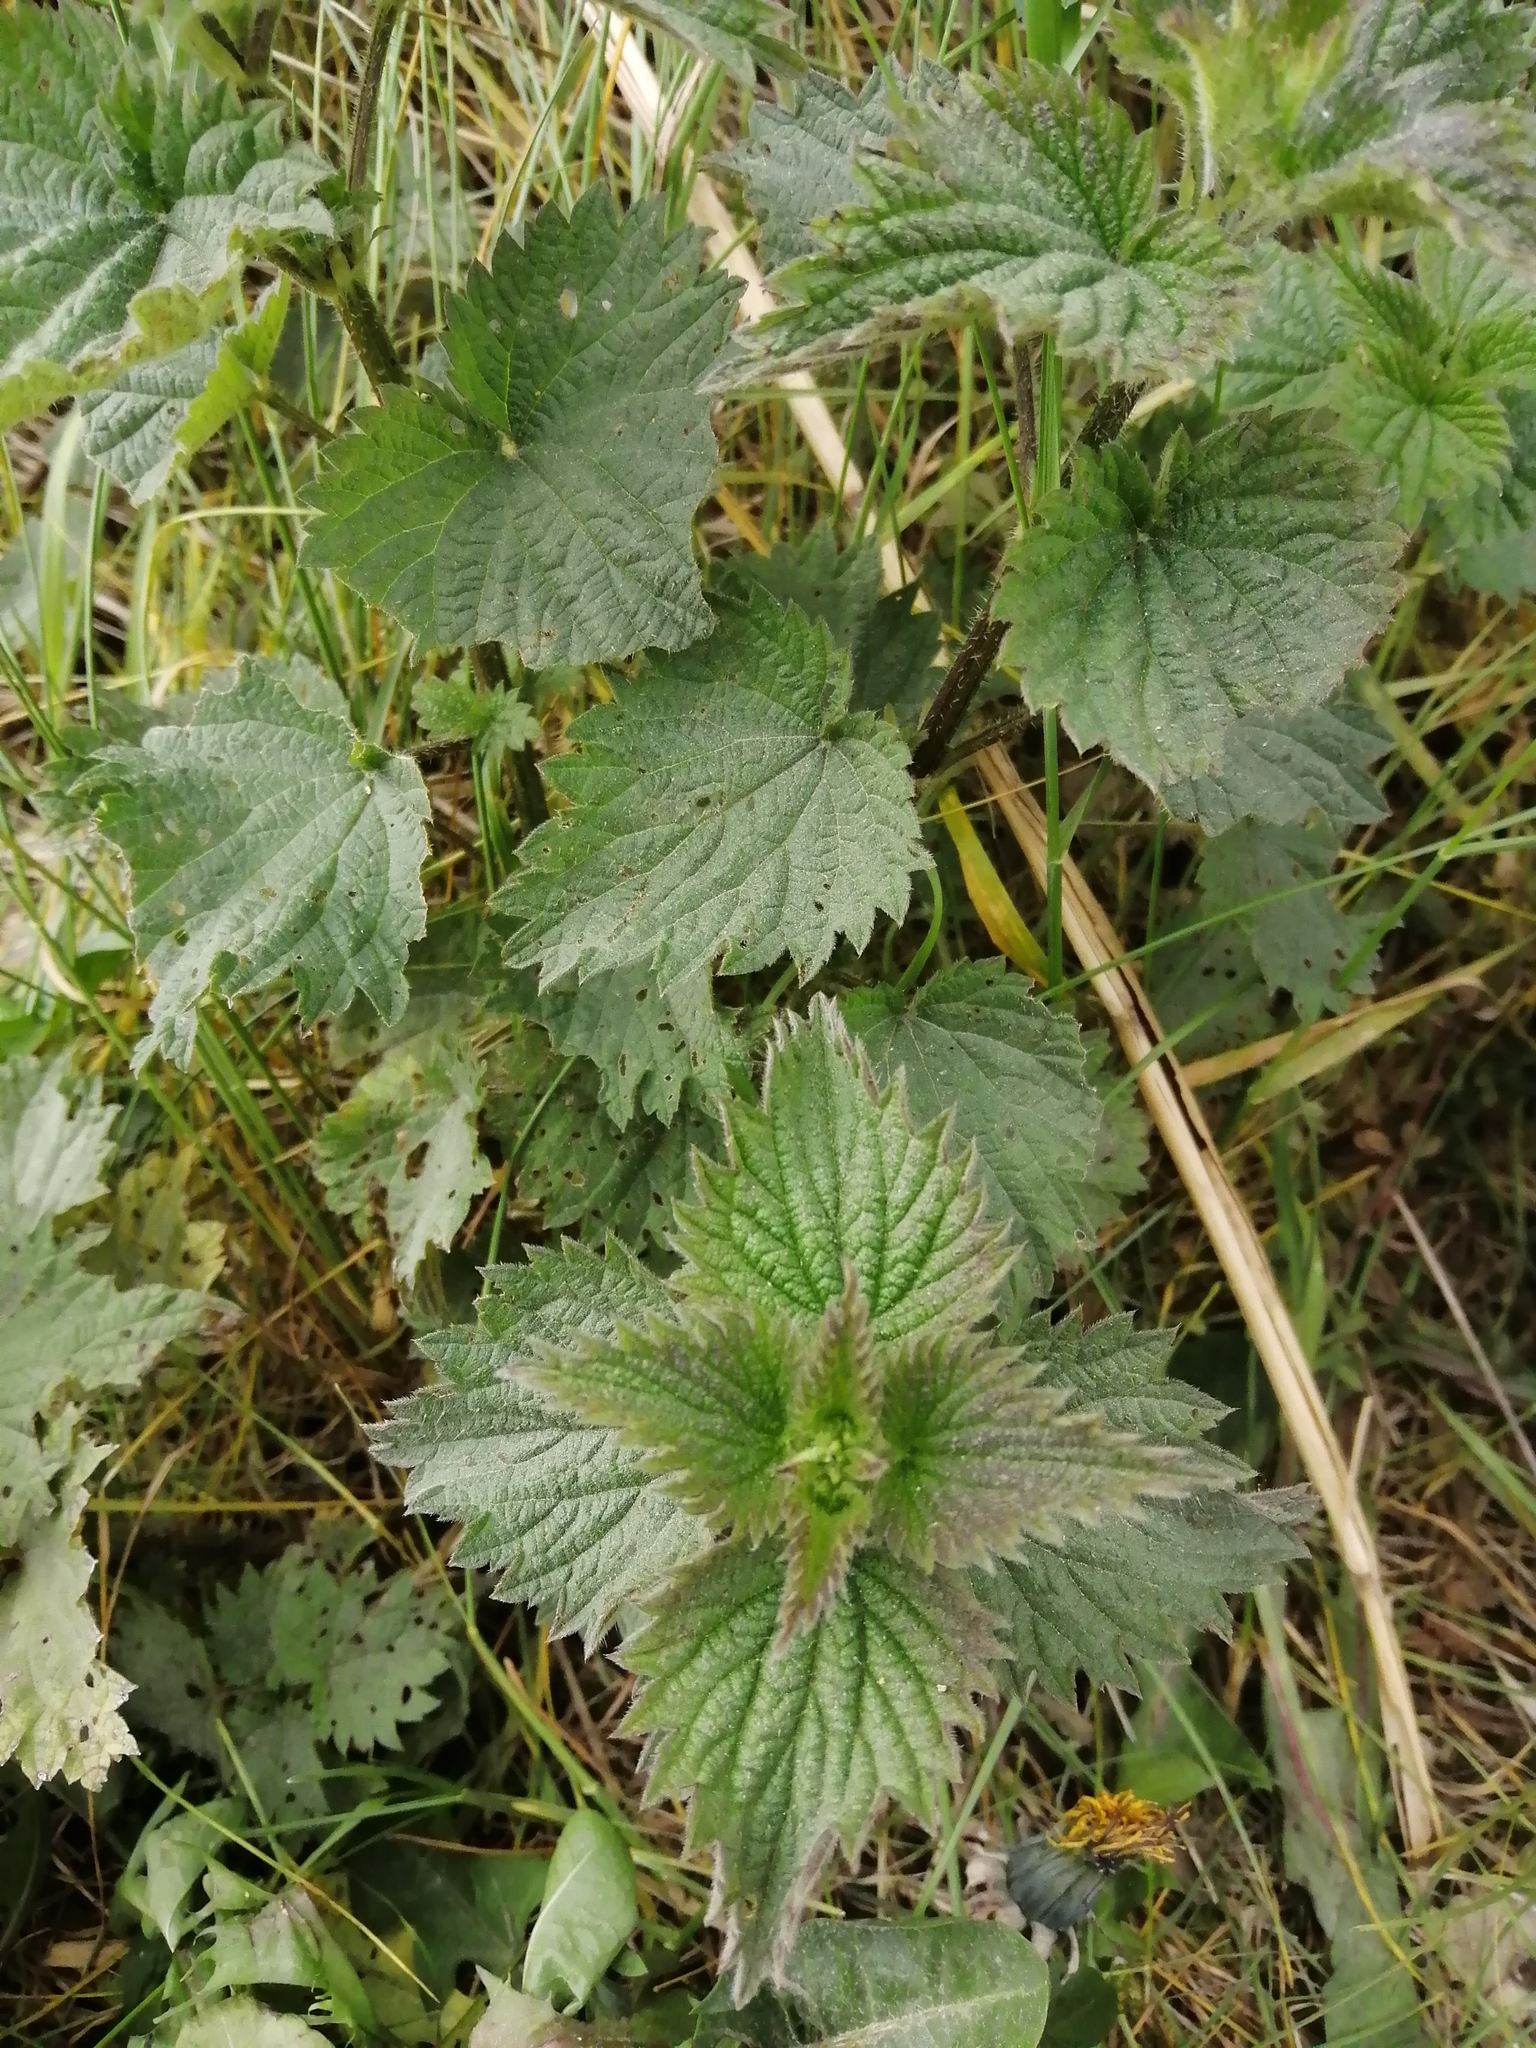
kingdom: Plantae
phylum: Tracheophyta
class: Magnoliopsida
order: Rosales
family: Urticaceae
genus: Urtica
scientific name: Urtica dioica
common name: Common nettle
